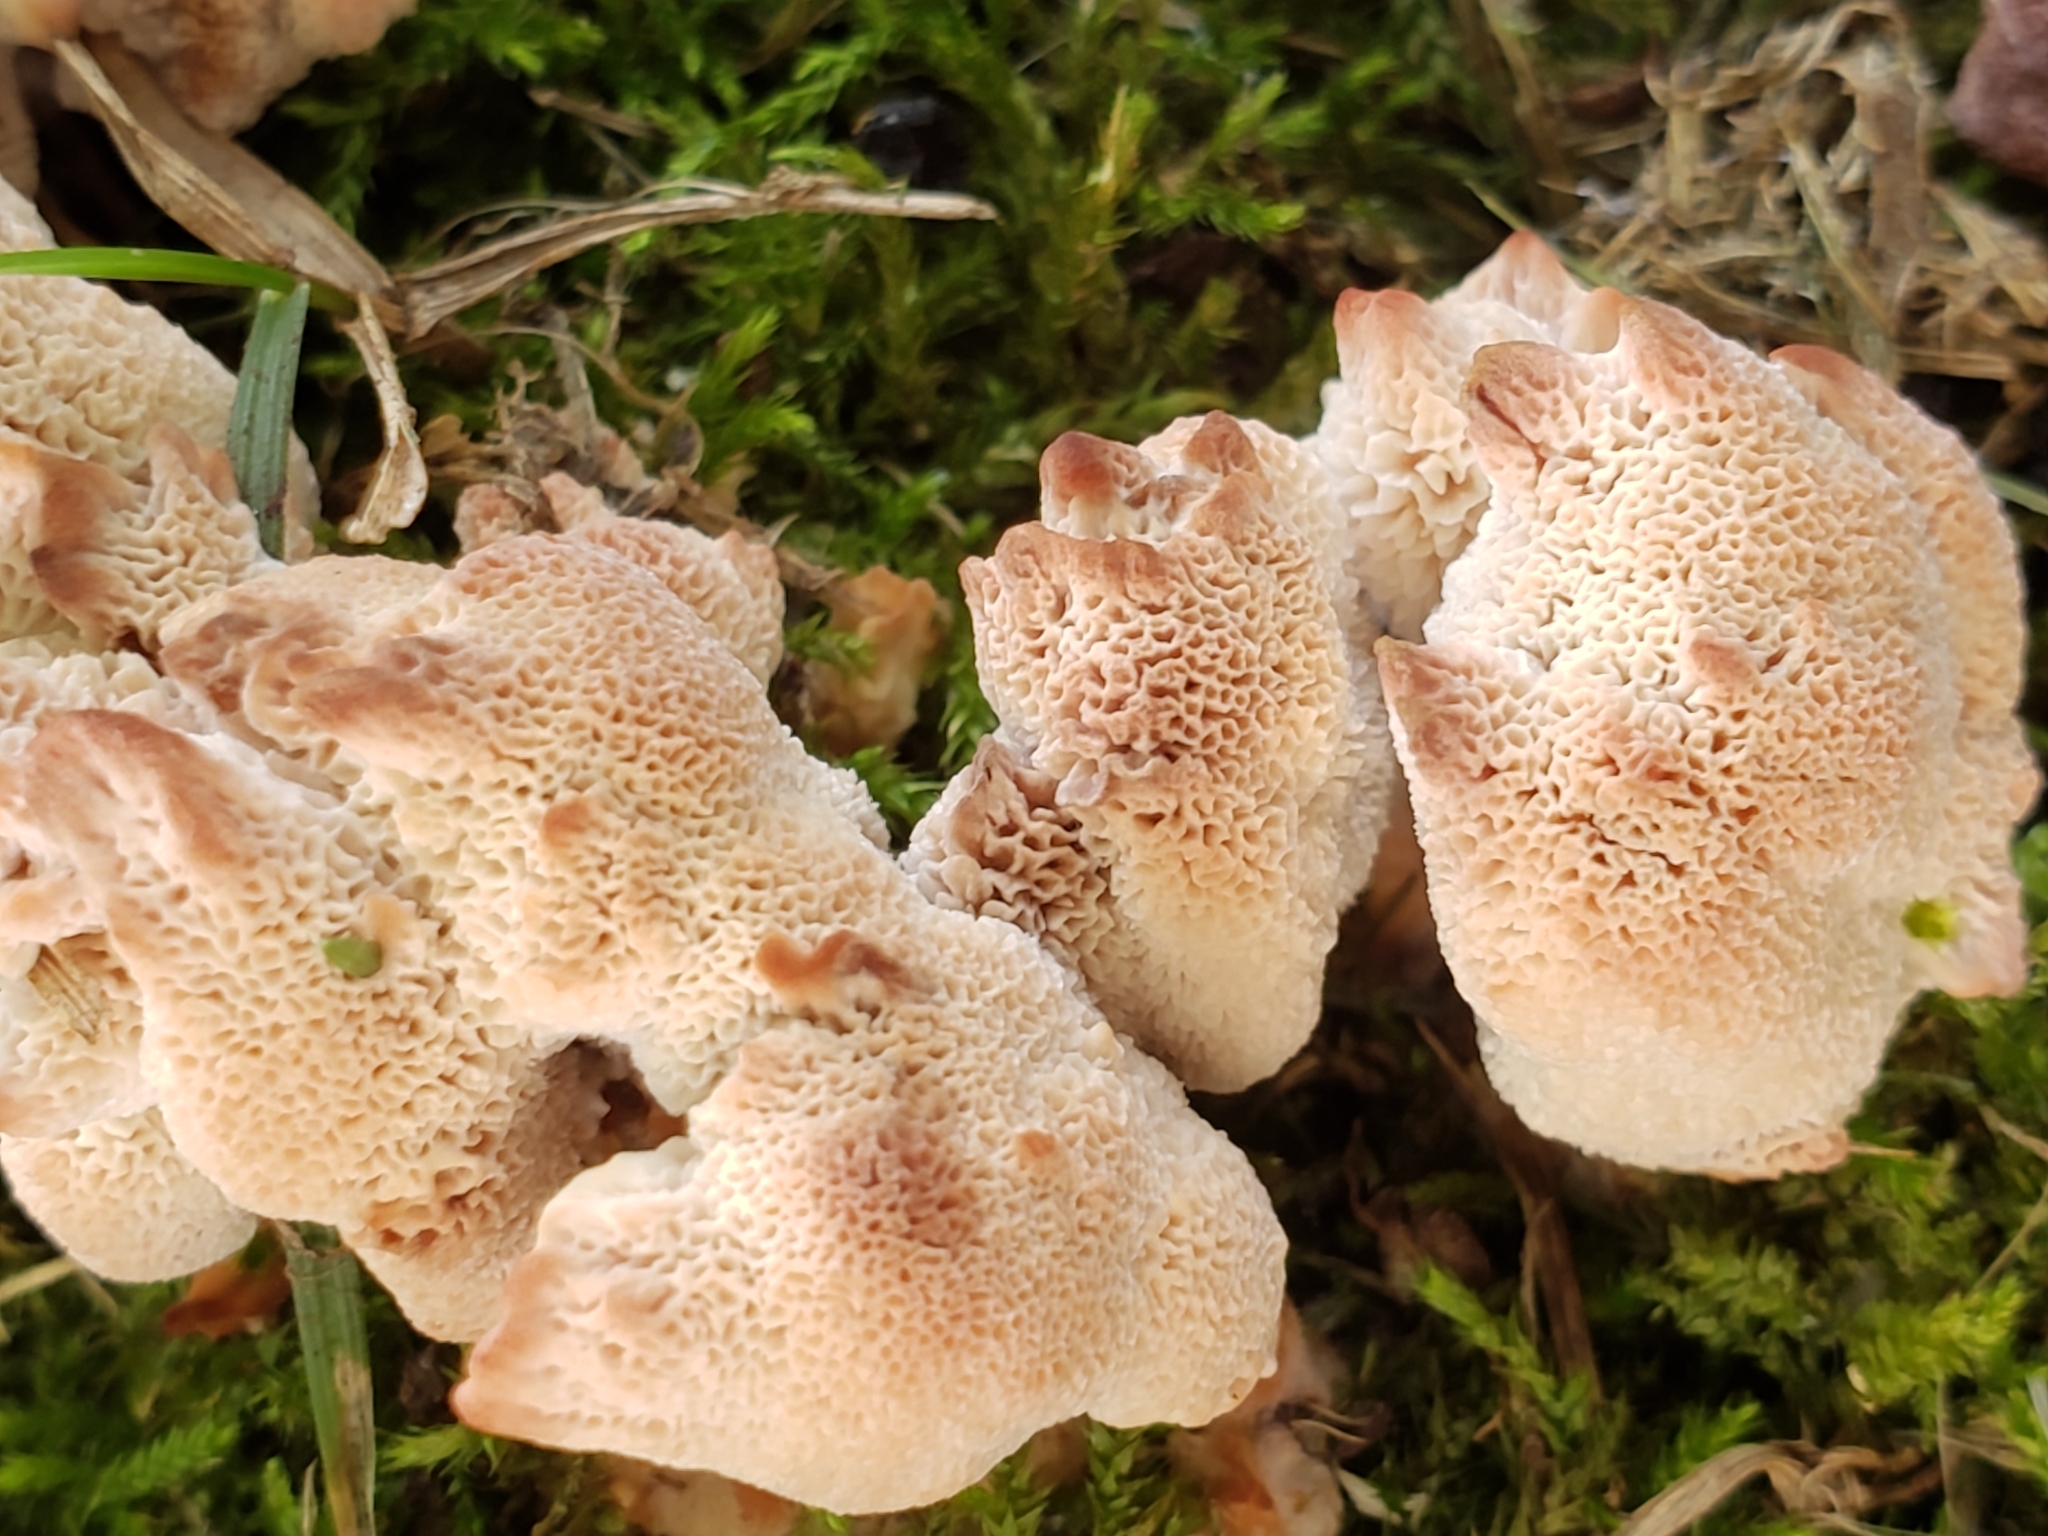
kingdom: Fungi
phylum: Basidiomycota
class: Agaricomycetes
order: Polyporales
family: Podoscyphaceae
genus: Abortiporus
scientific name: Abortiporus biennis
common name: Blushing rosette
